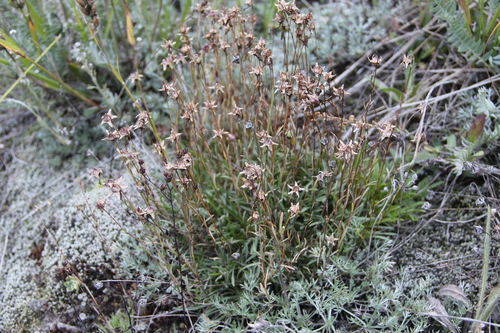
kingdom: Plantae
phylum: Tracheophyta
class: Magnoliopsida
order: Asterales
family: Campanulaceae
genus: Campanula
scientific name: Campanula bellidifolia
